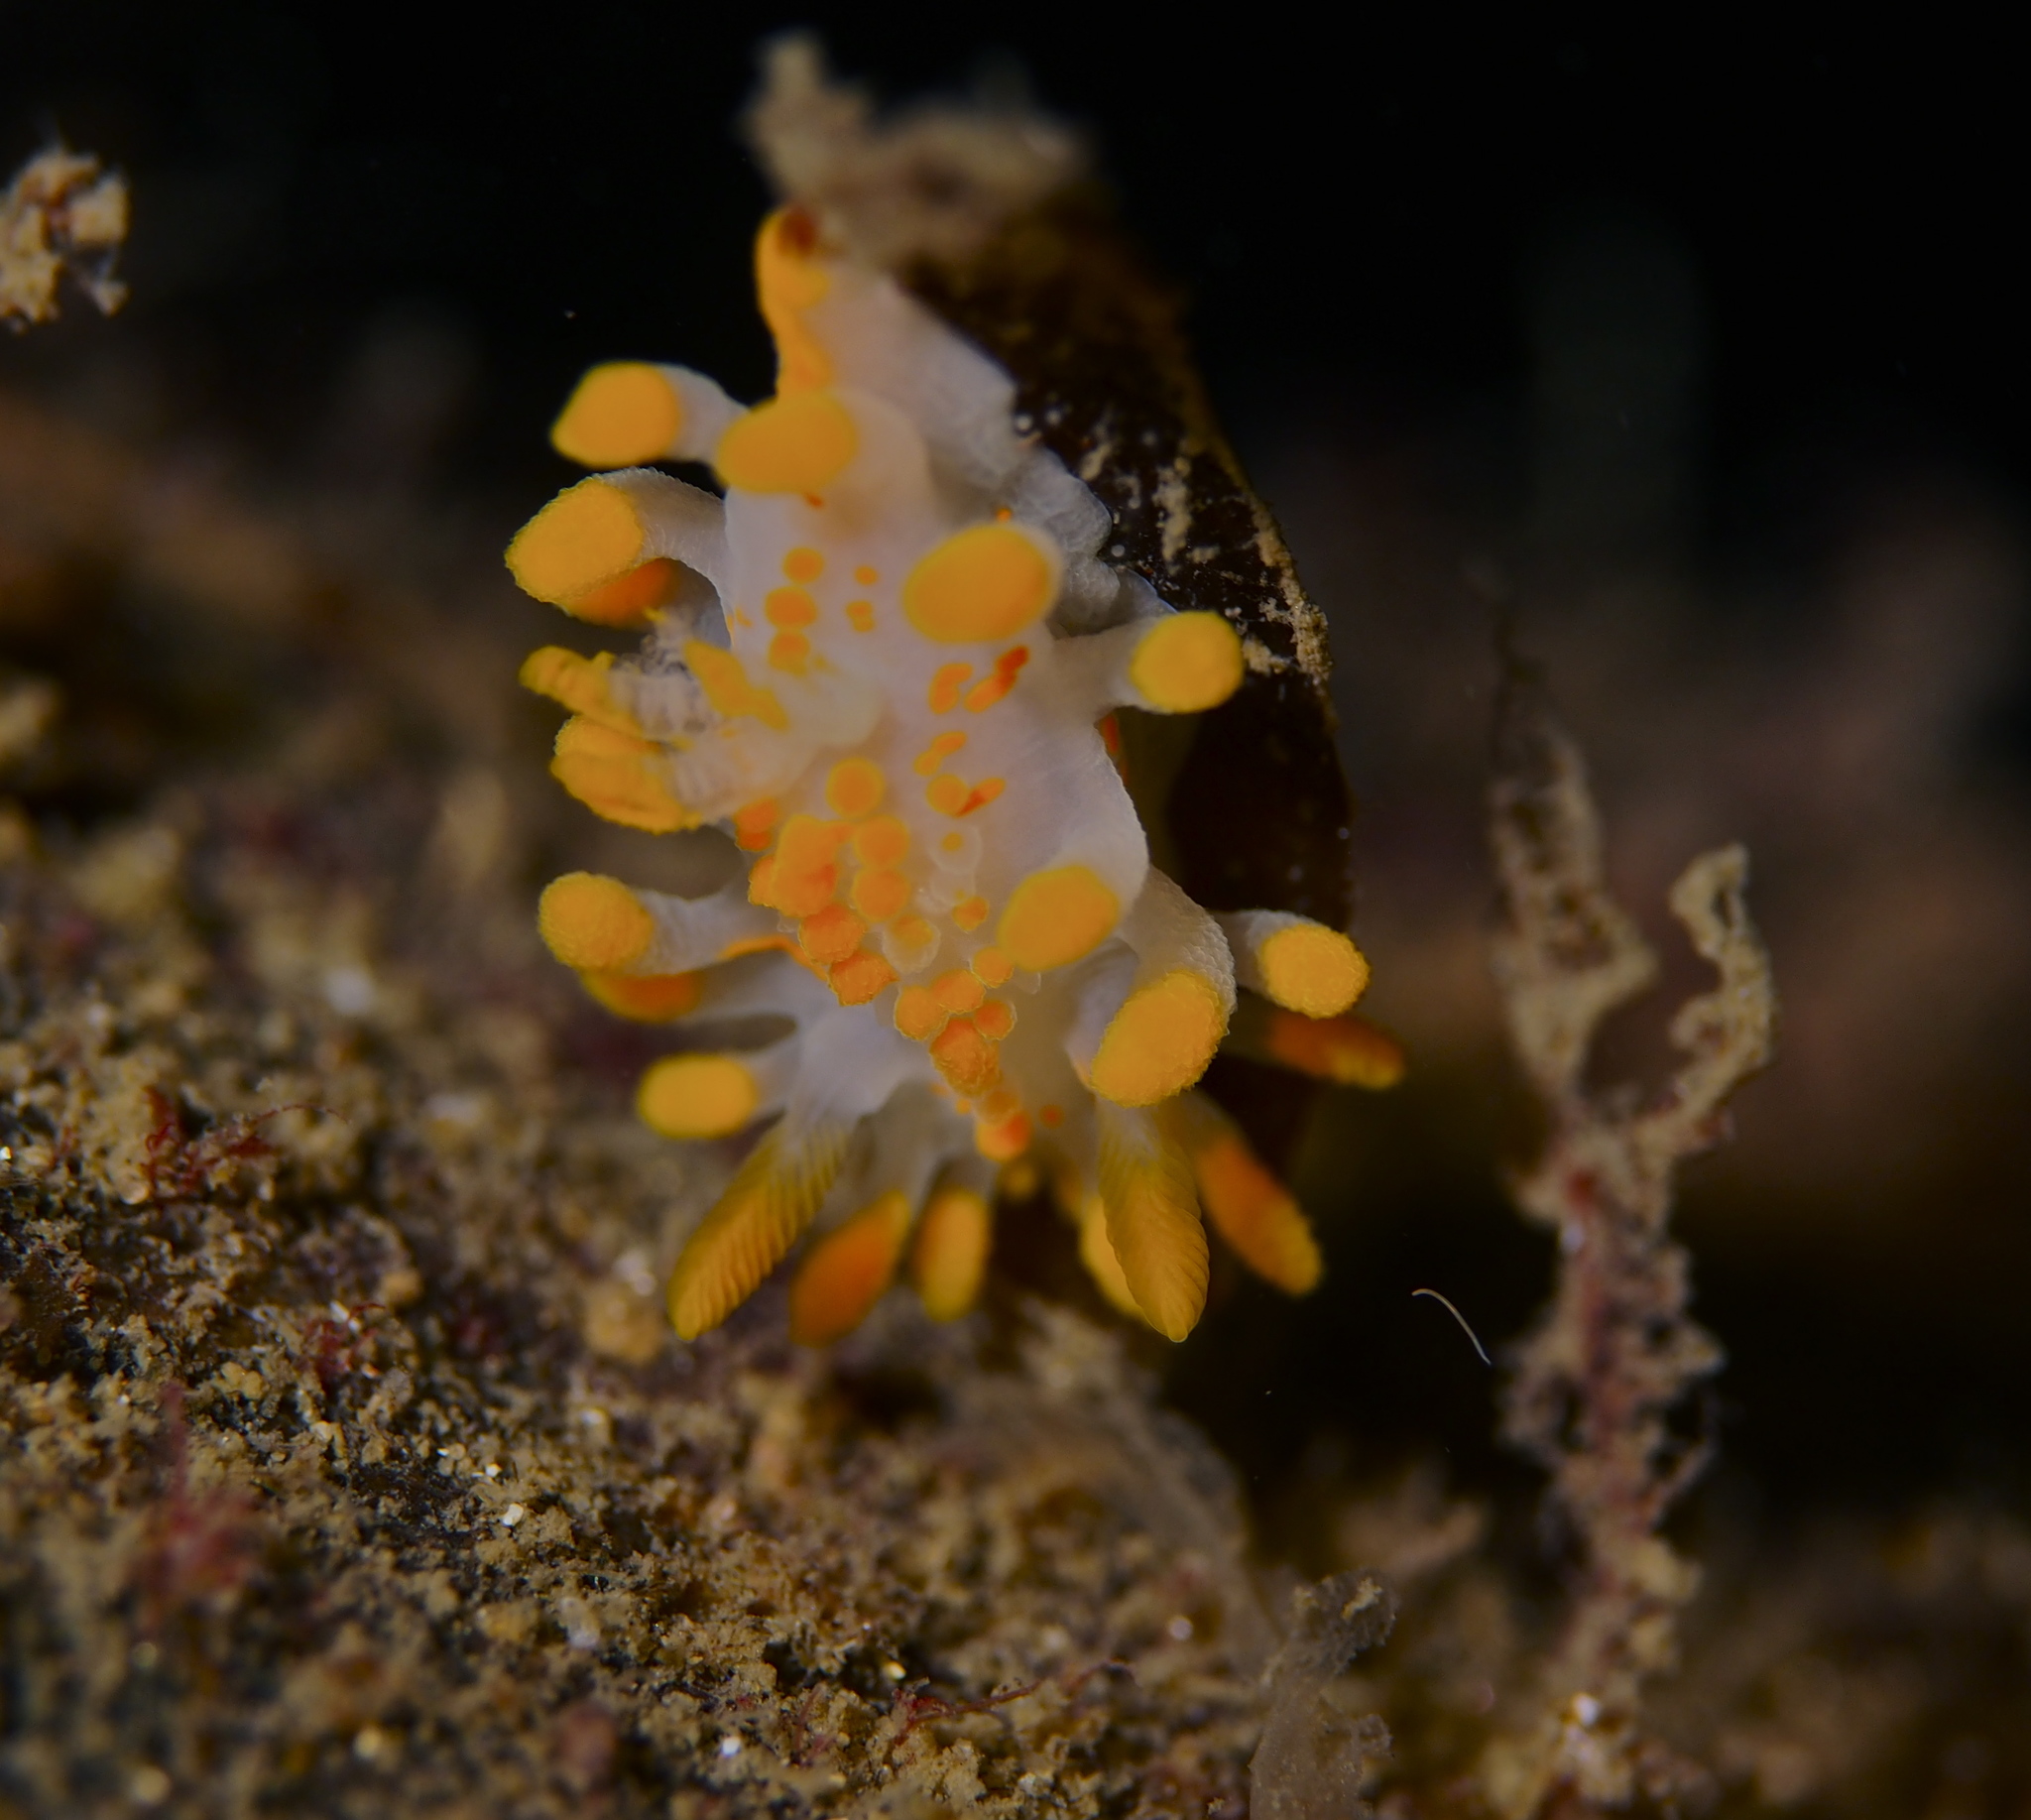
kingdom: Animalia
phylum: Mollusca
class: Gastropoda
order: Nudibranchia
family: Polyceridae
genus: Limacia
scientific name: Limacia clavigera
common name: Orange-clubbed sea slug
